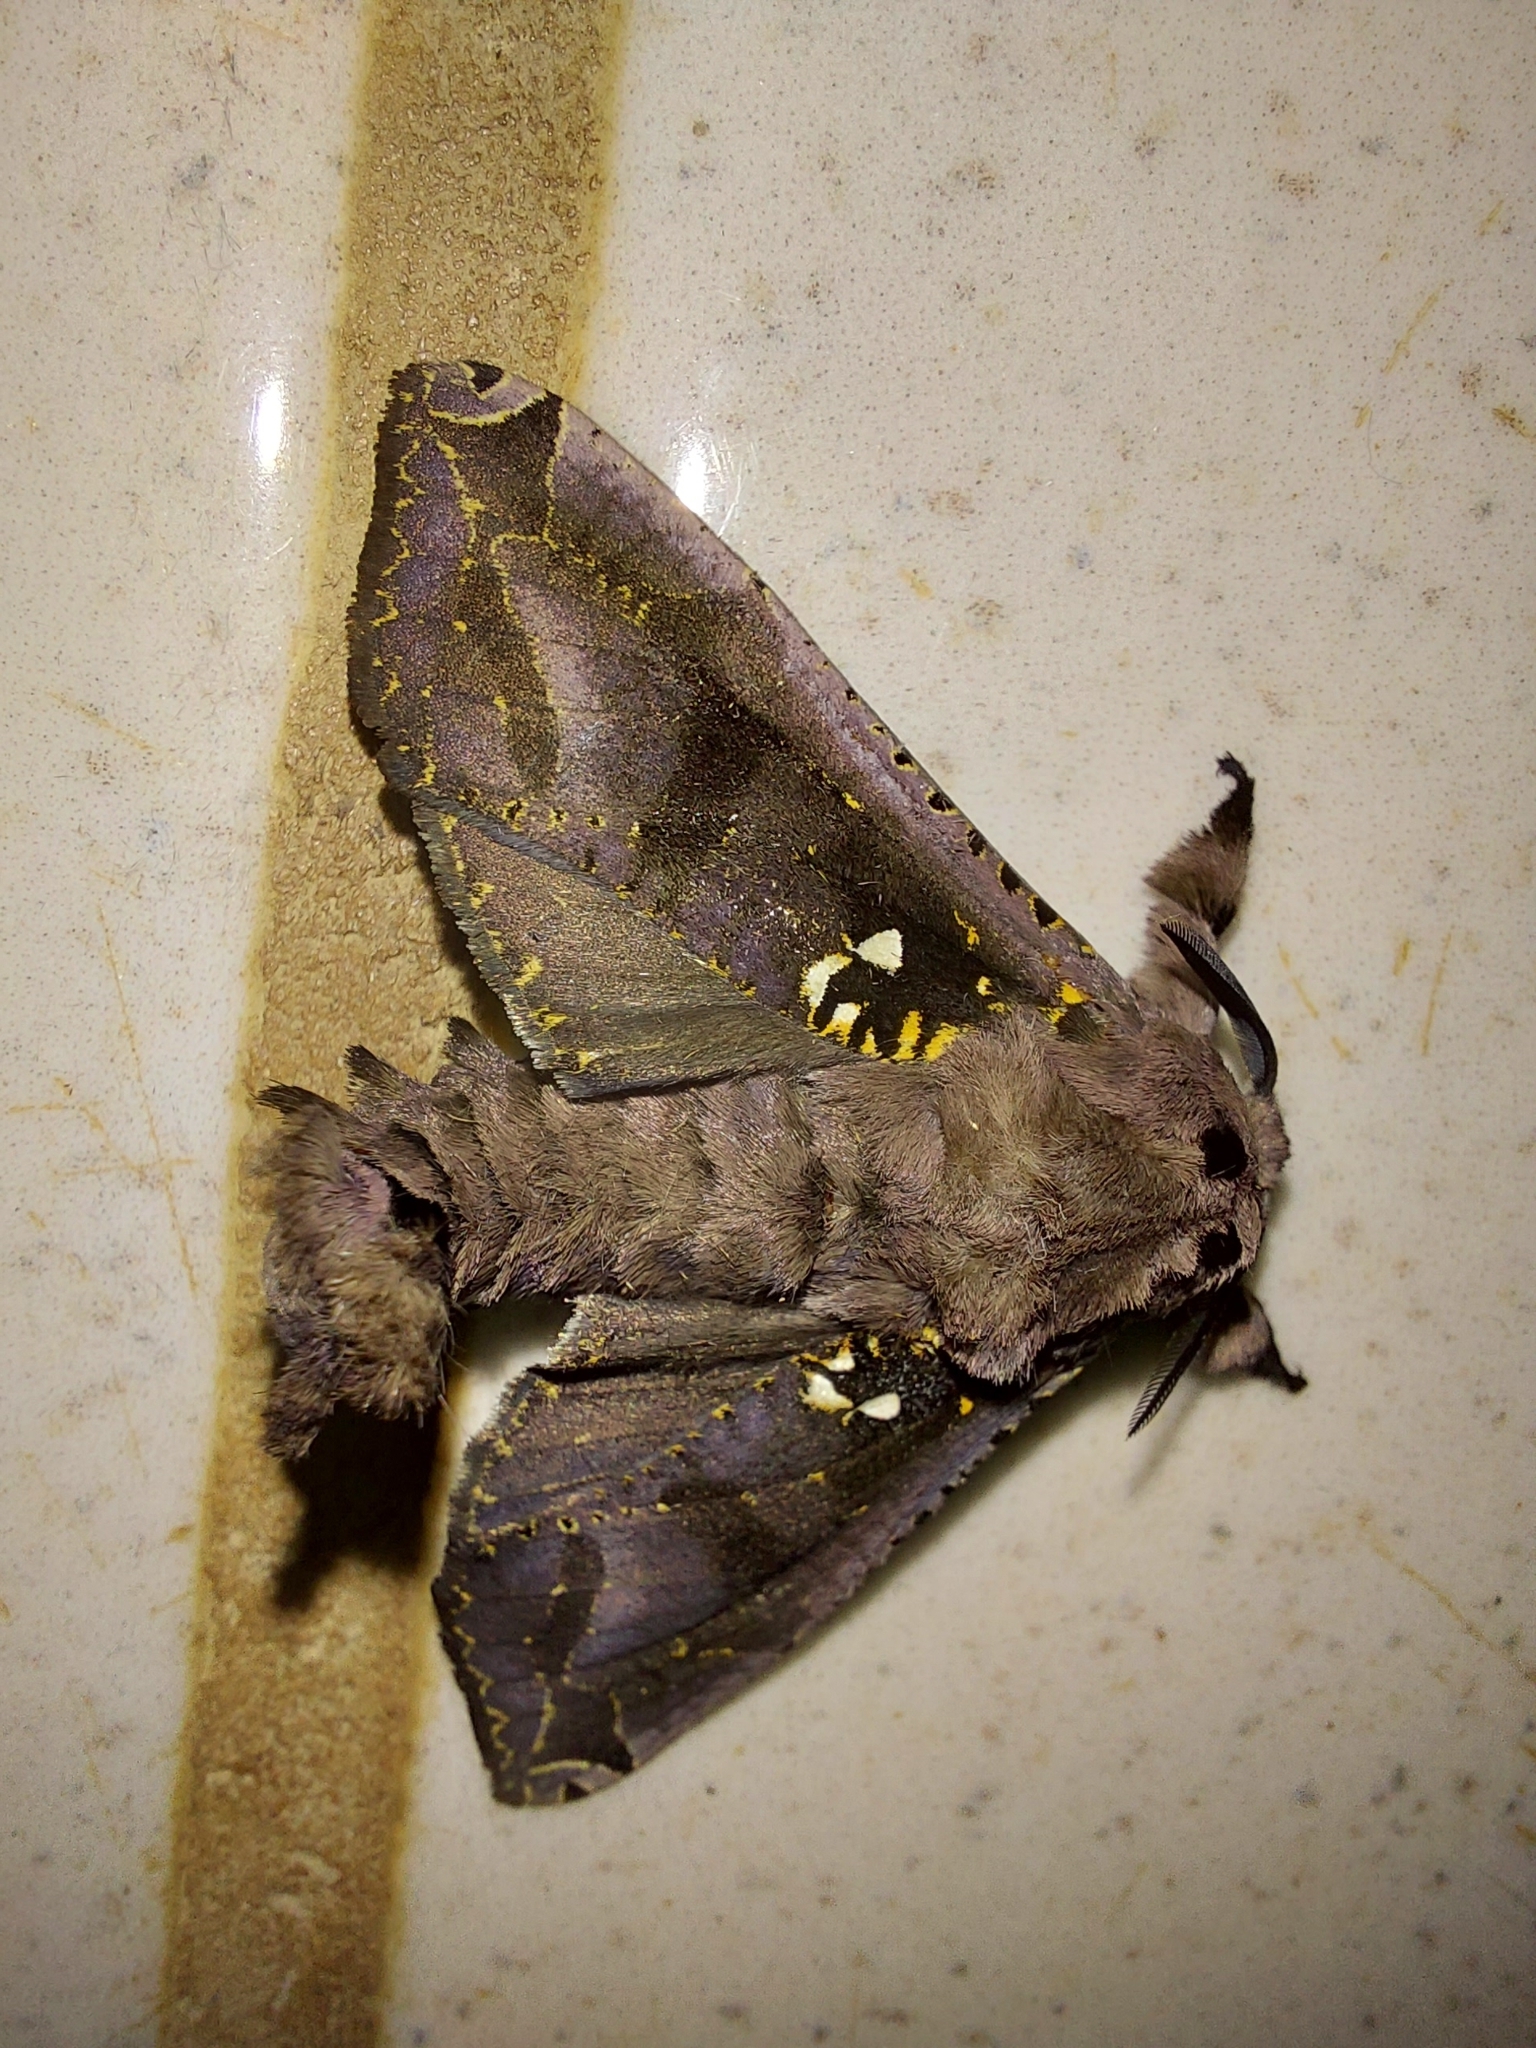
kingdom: Animalia
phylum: Arthropoda
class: Insecta
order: Lepidoptera
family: Cossidae
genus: Langsdorfia
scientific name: Langsdorfia franckii
